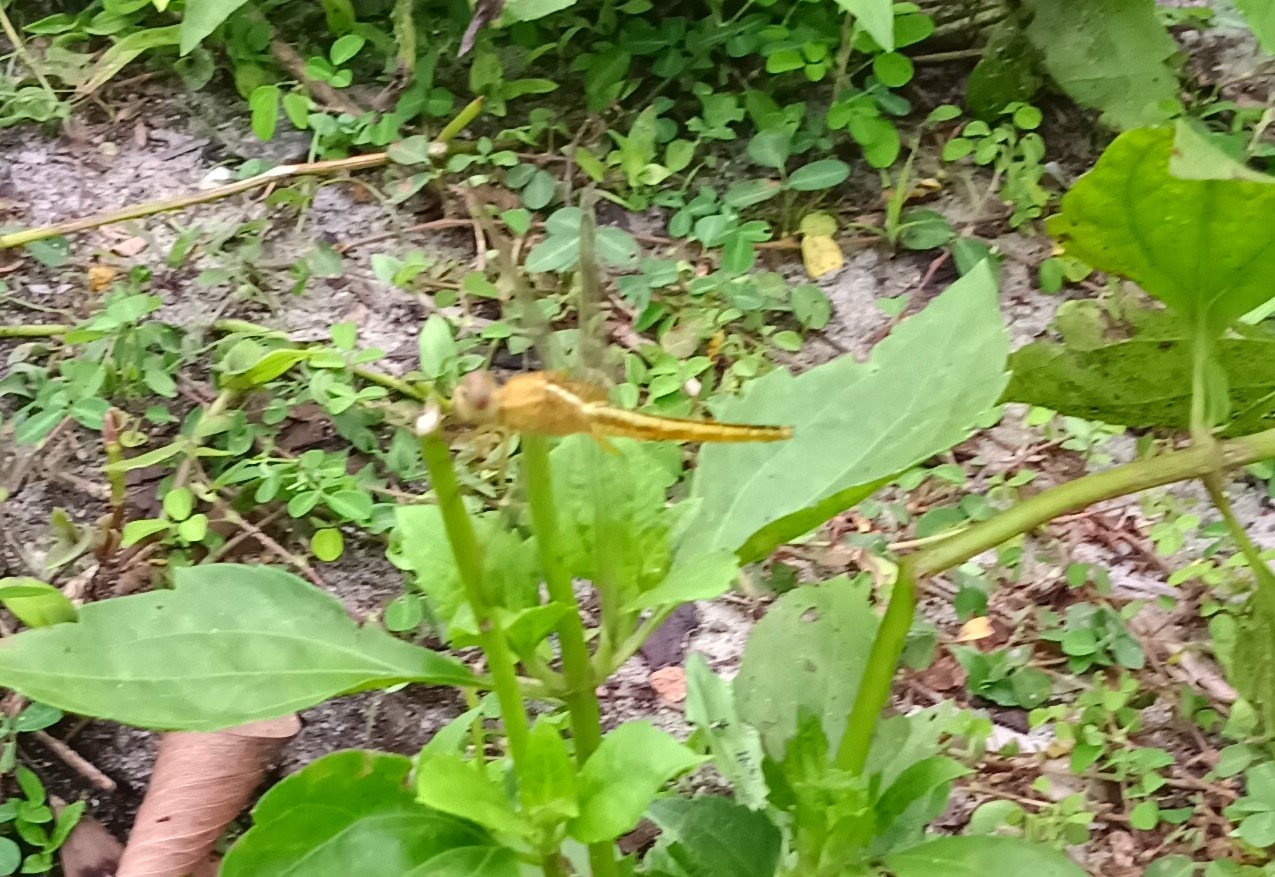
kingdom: Animalia
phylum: Arthropoda
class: Insecta
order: Odonata
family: Libellulidae
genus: Crocothemis
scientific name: Crocothemis servilia
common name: Scarlet skimmer
